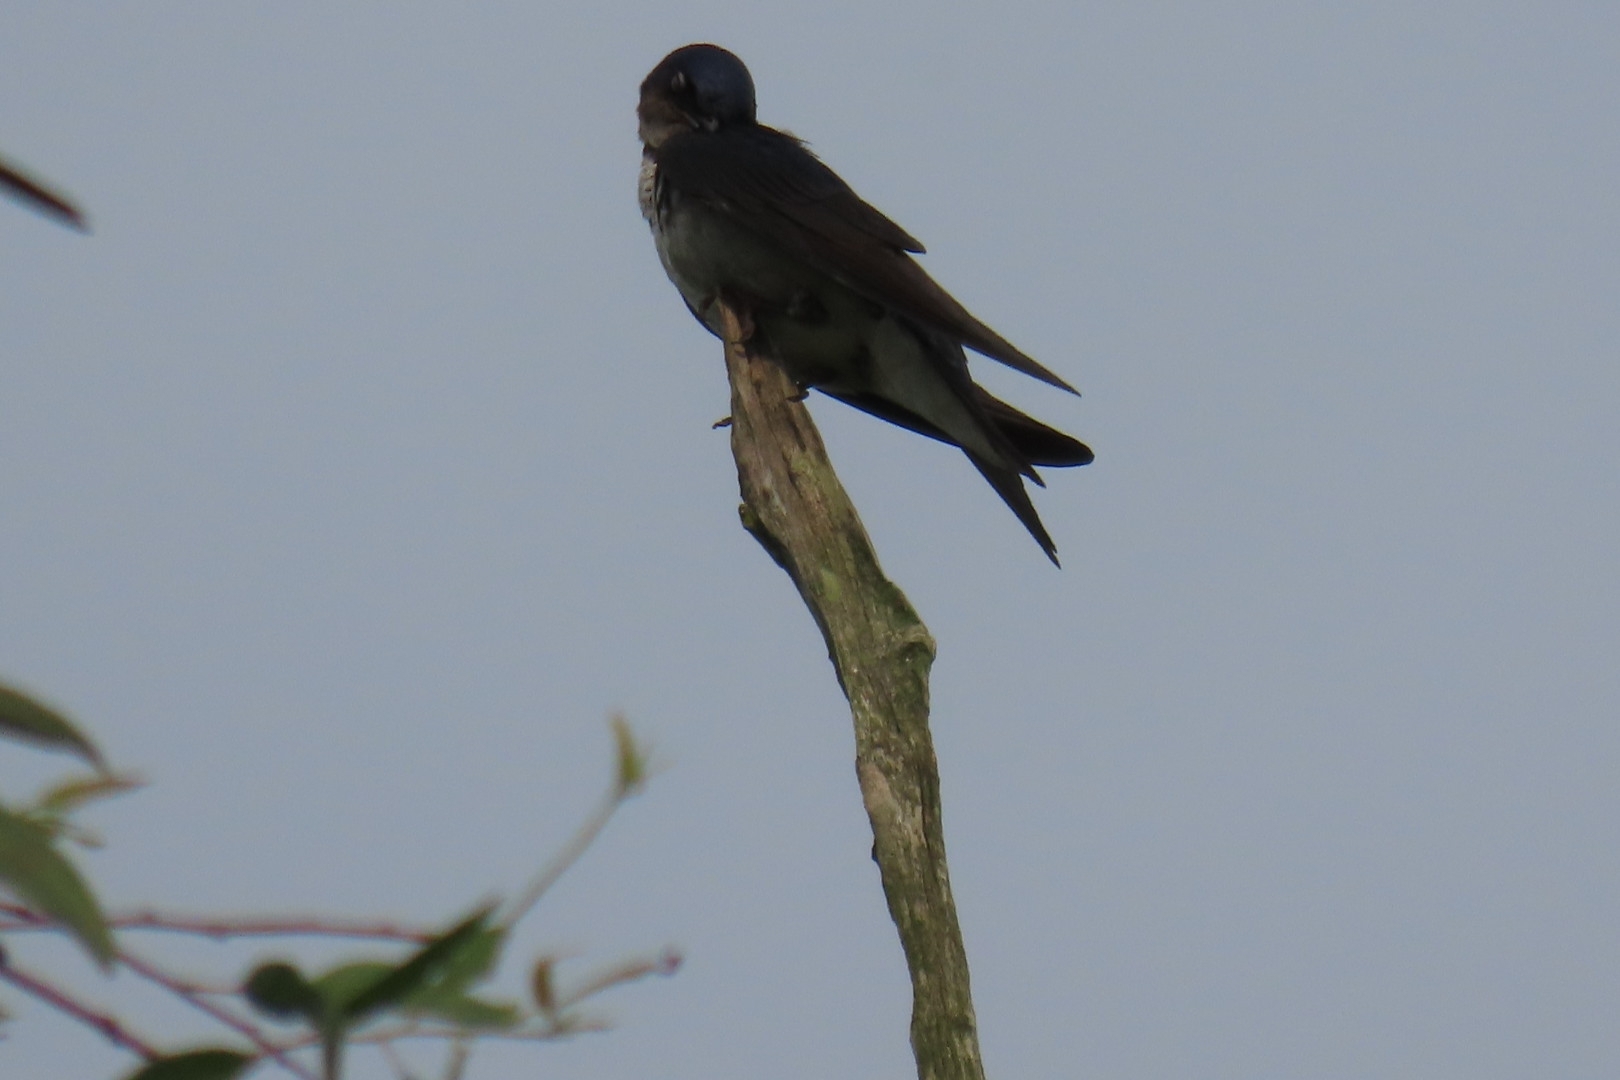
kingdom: Animalia
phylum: Chordata
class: Aves
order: Passeriformes
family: Hirundinidae
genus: Progne
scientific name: Progne chalybea
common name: Grey-breasted martin
